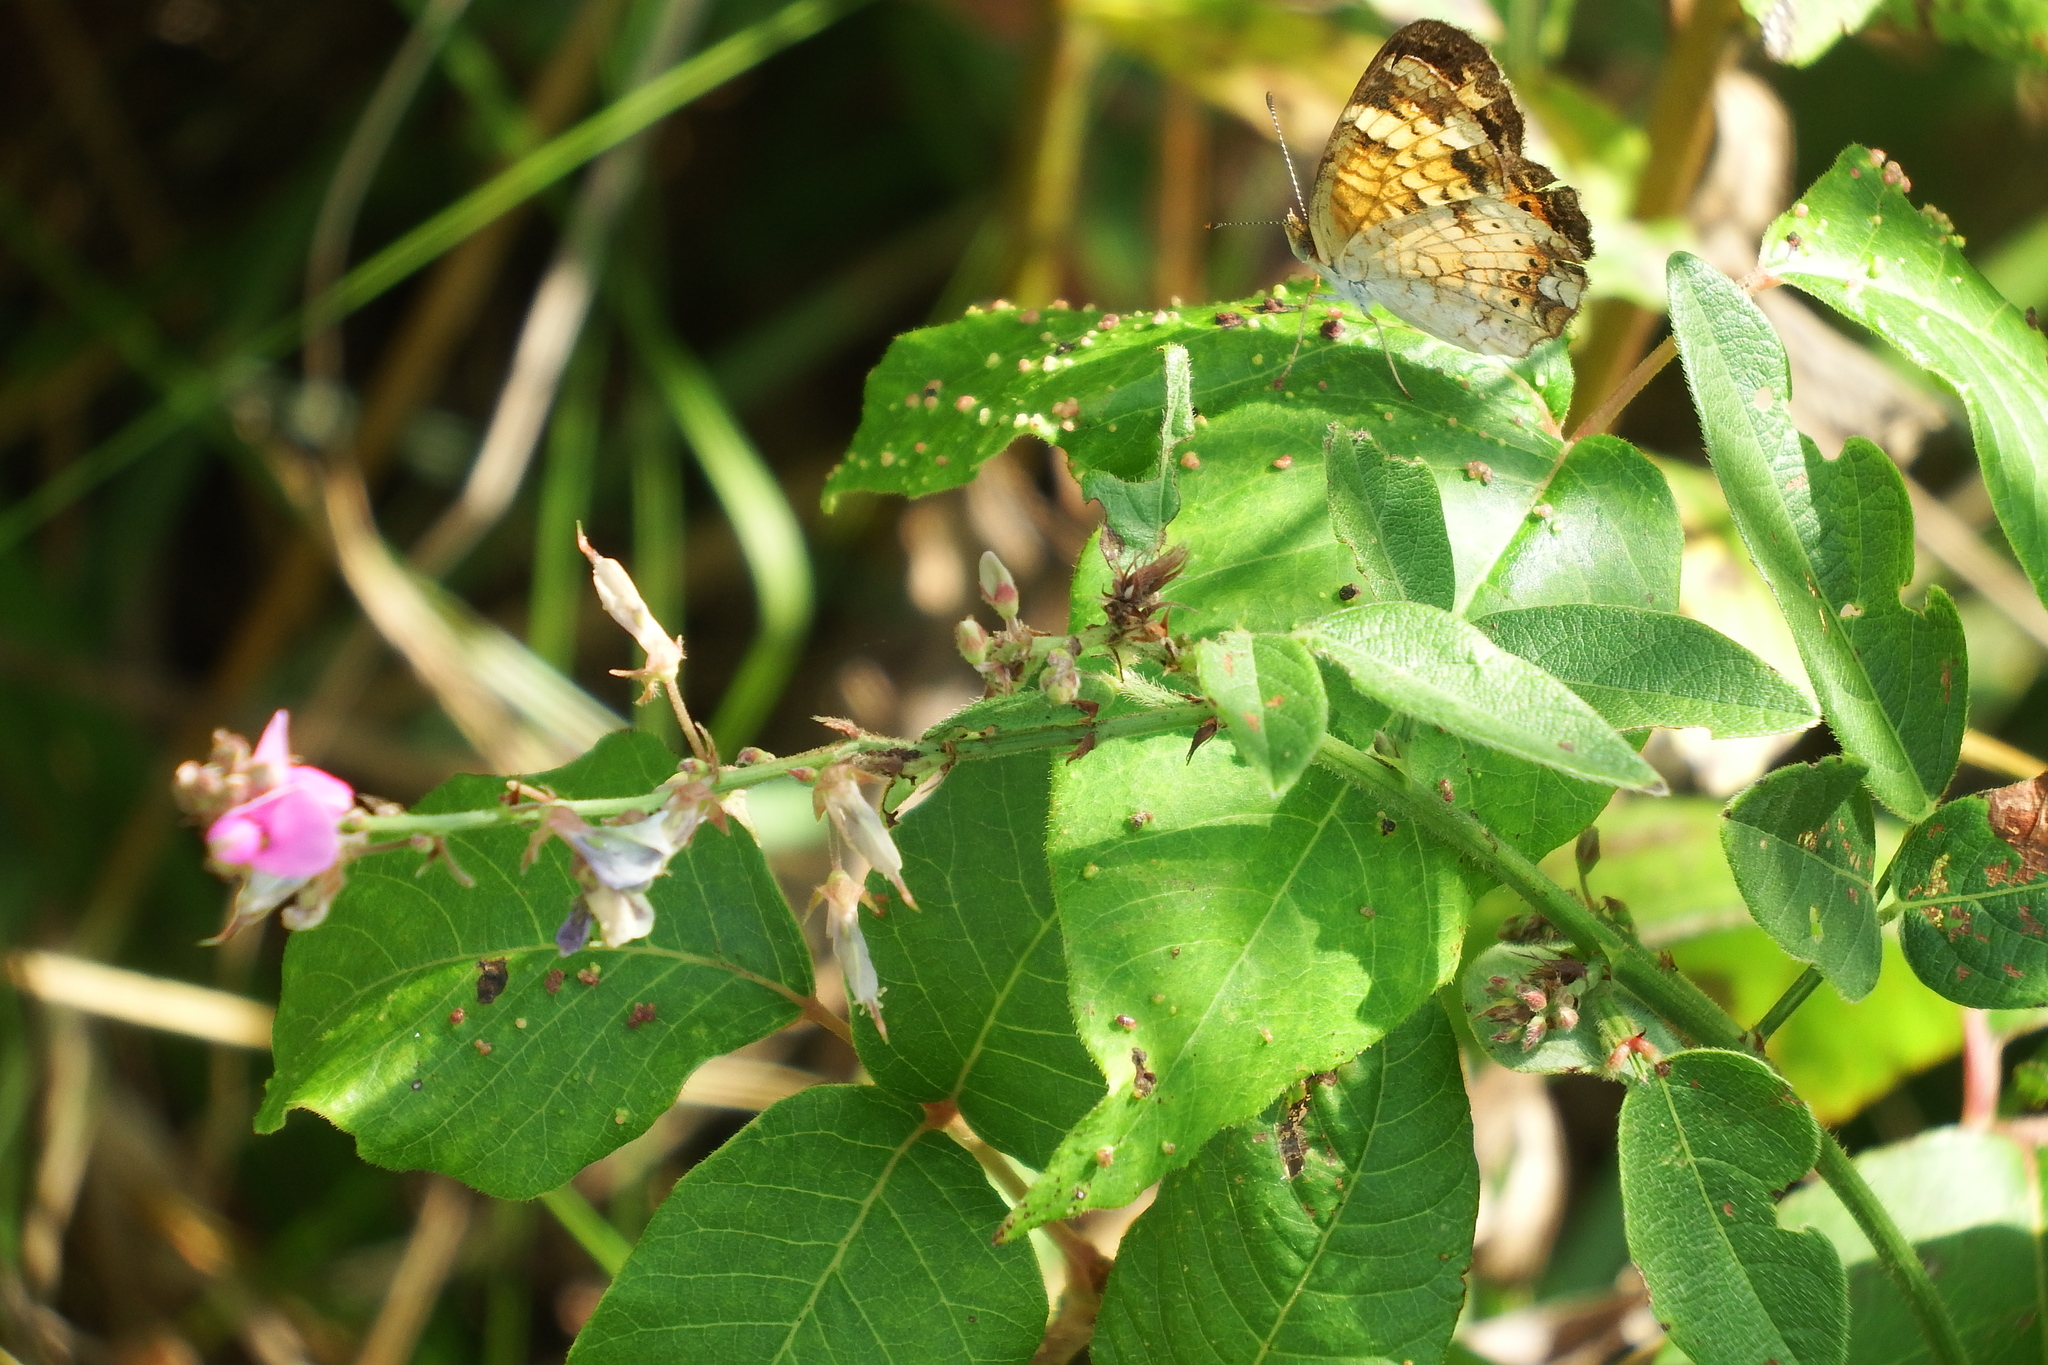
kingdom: Animalia
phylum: Arthropoda
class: Insecta
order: Lepidoptera
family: Nymphalidae
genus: Phyciodes
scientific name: Phyciodes tharos
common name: Pearl crescent
